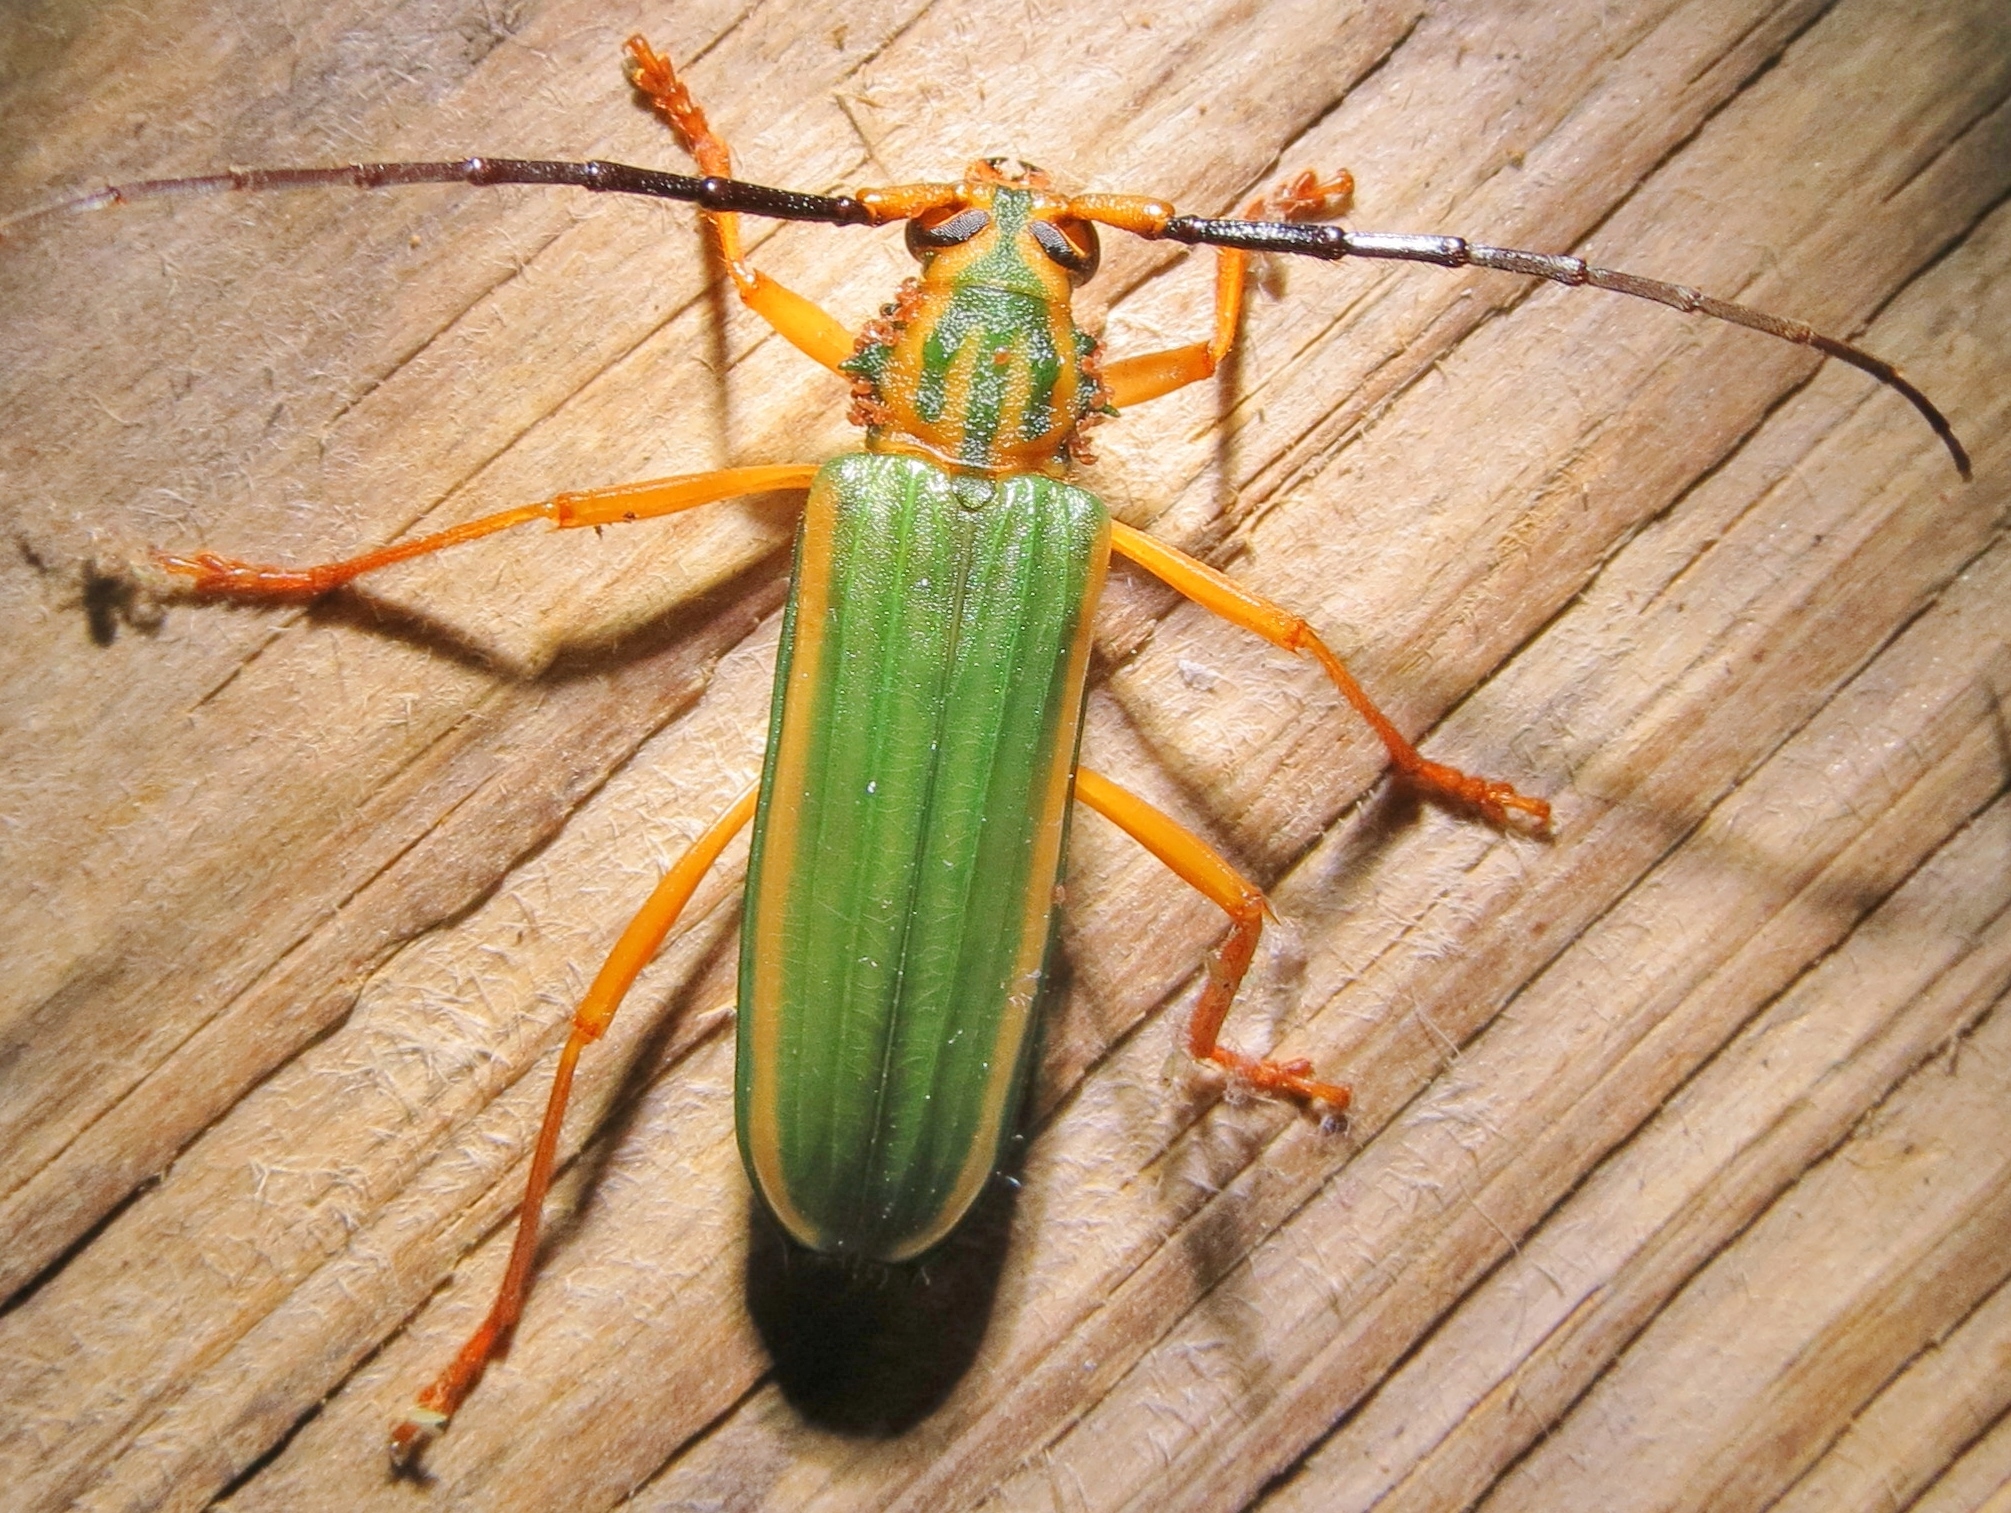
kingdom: Animalia
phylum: Arthropoda
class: Insecta
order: Coleoptera
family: Cerambycidae
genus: Chlorida
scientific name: Chlorida festiva
